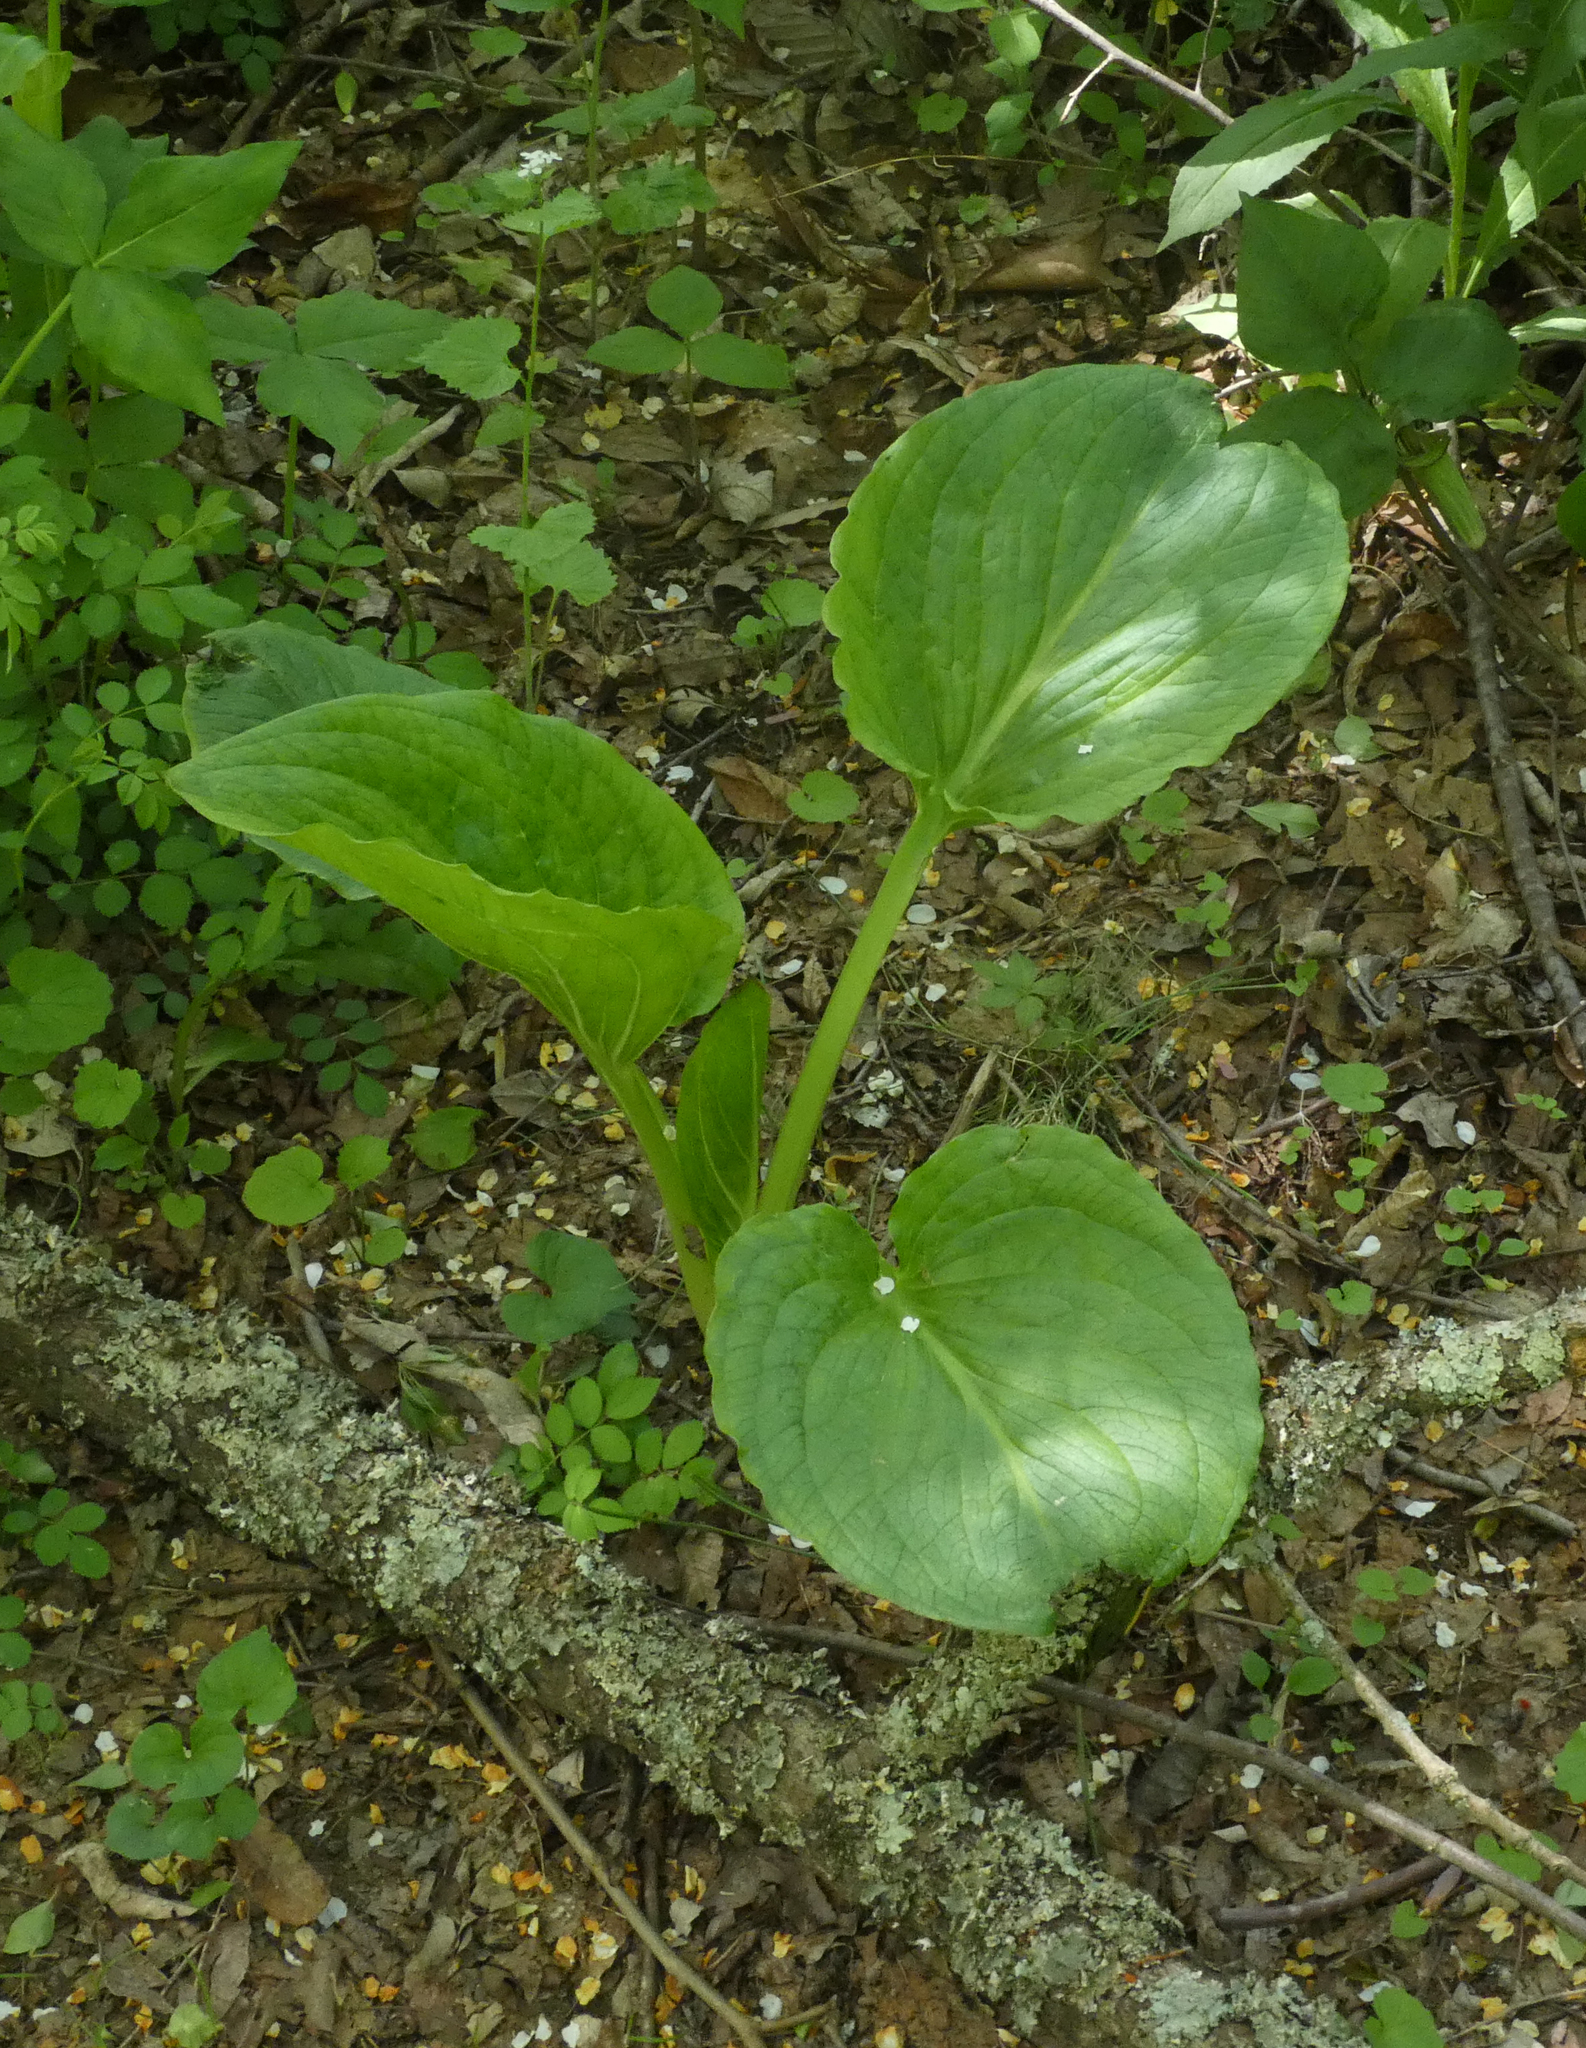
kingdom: Plantae
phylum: Tracheophyta
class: Liliopsida
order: Alismatales
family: Araceae
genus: Symplocarpus
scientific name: Symplocarpus foetidus
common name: Eastern skunk cabbage
